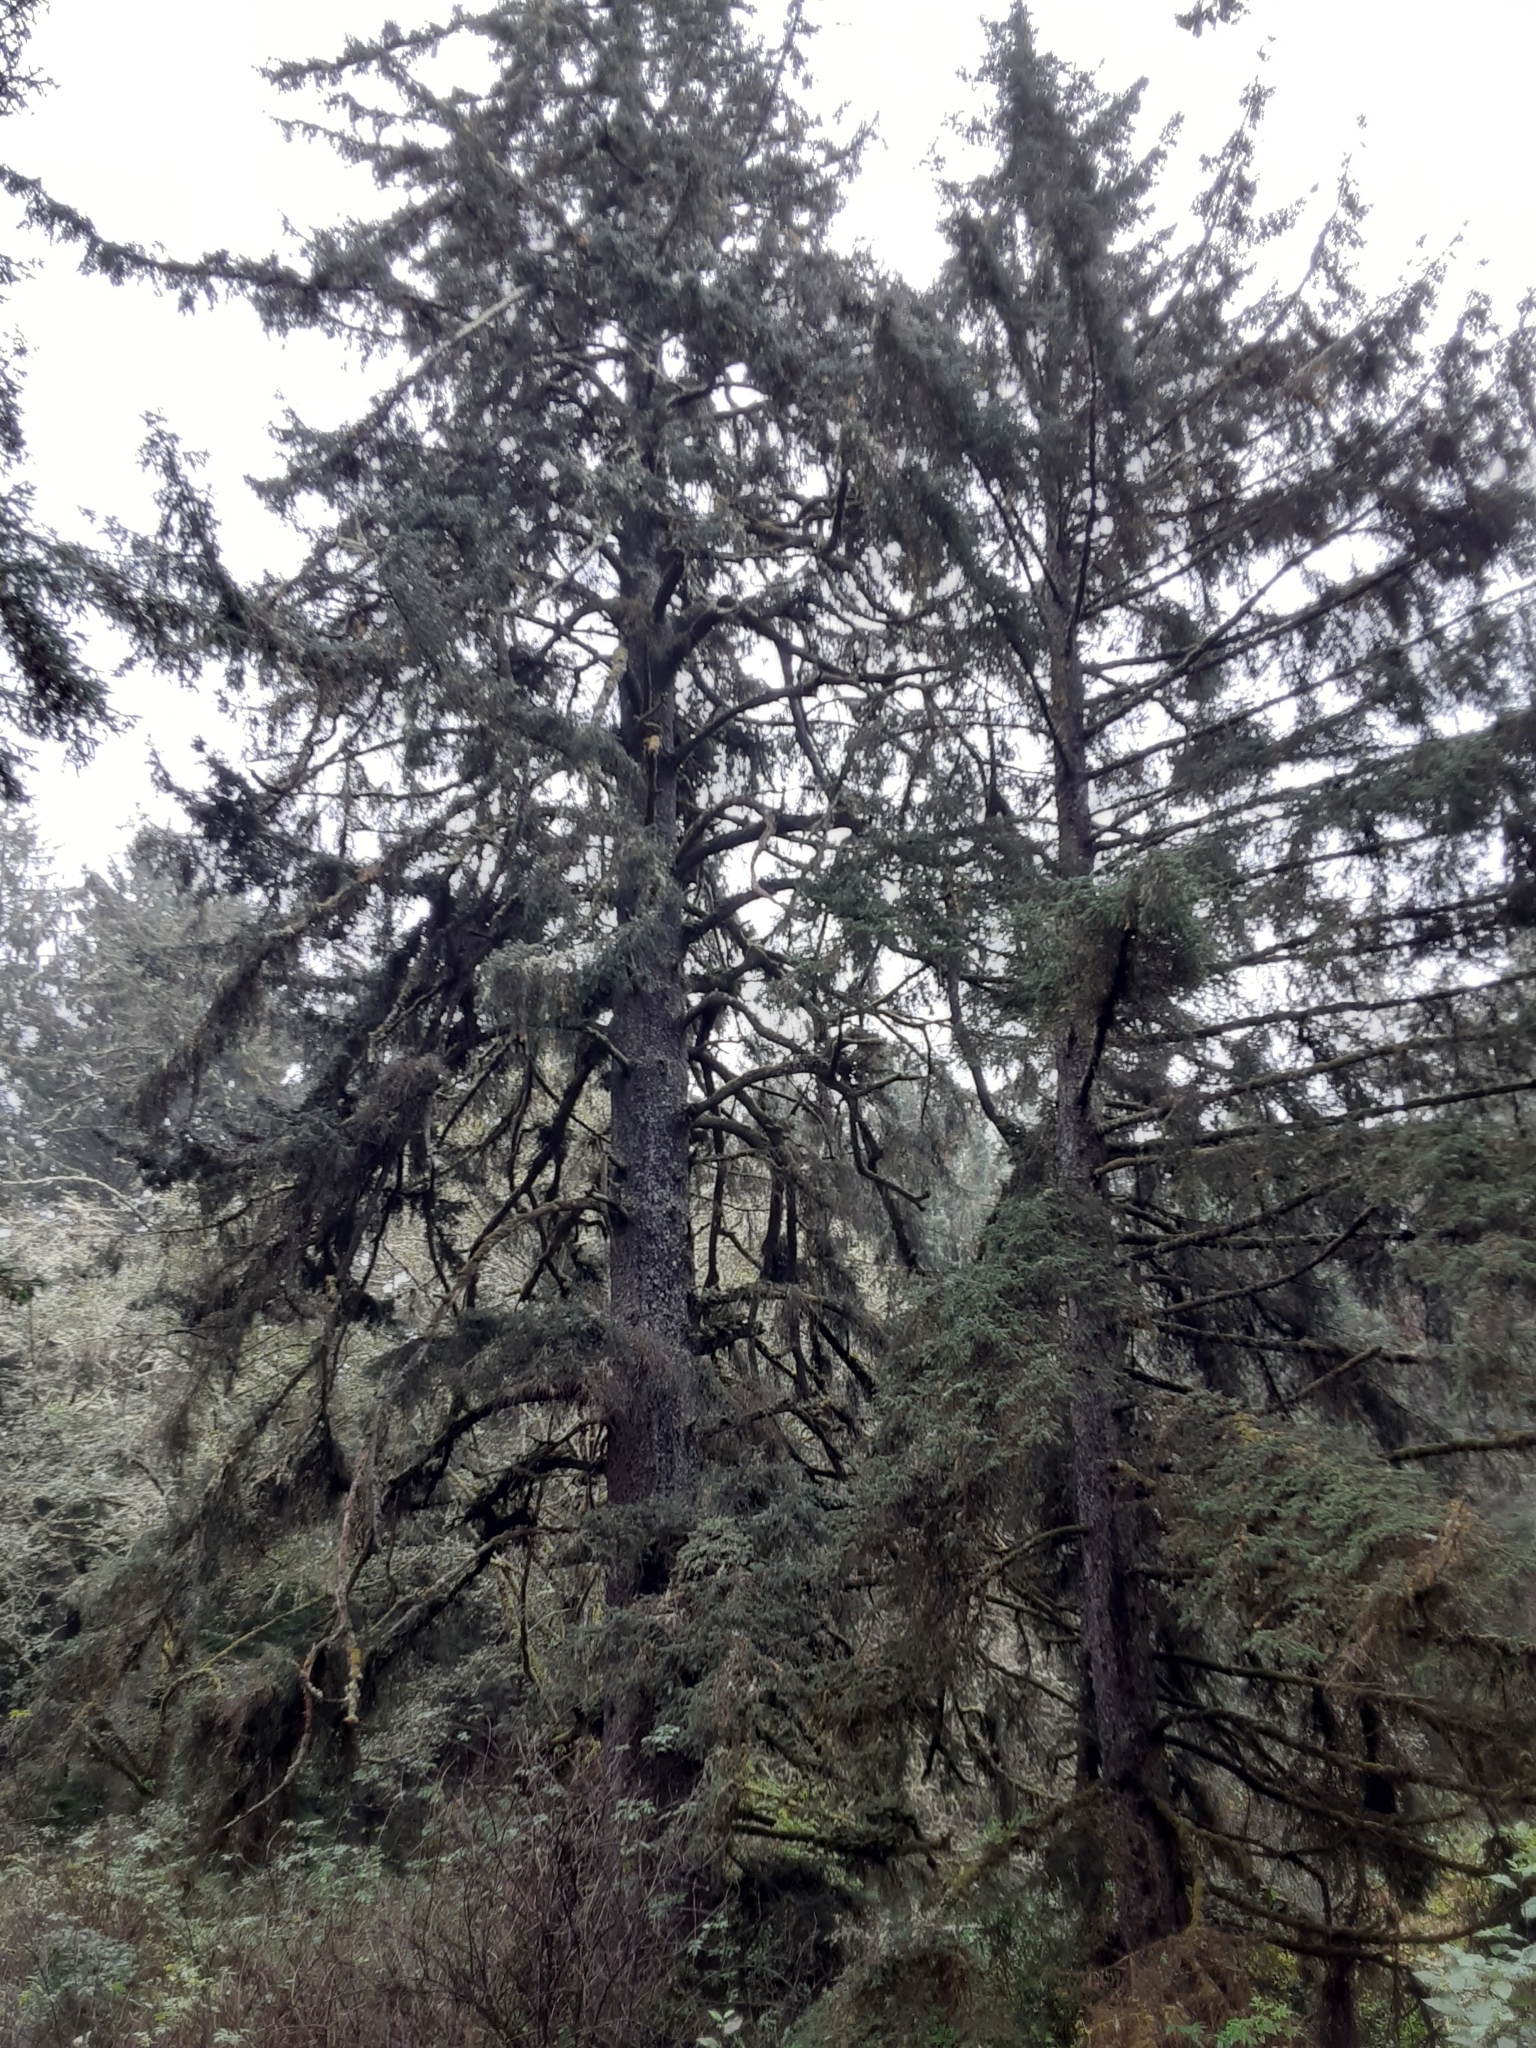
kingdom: Plantae
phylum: Tracheophyta
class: Pinopsida
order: Pinales
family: Pinaceae
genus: Picea
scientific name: Picea sitchensis
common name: Sitka spruce
